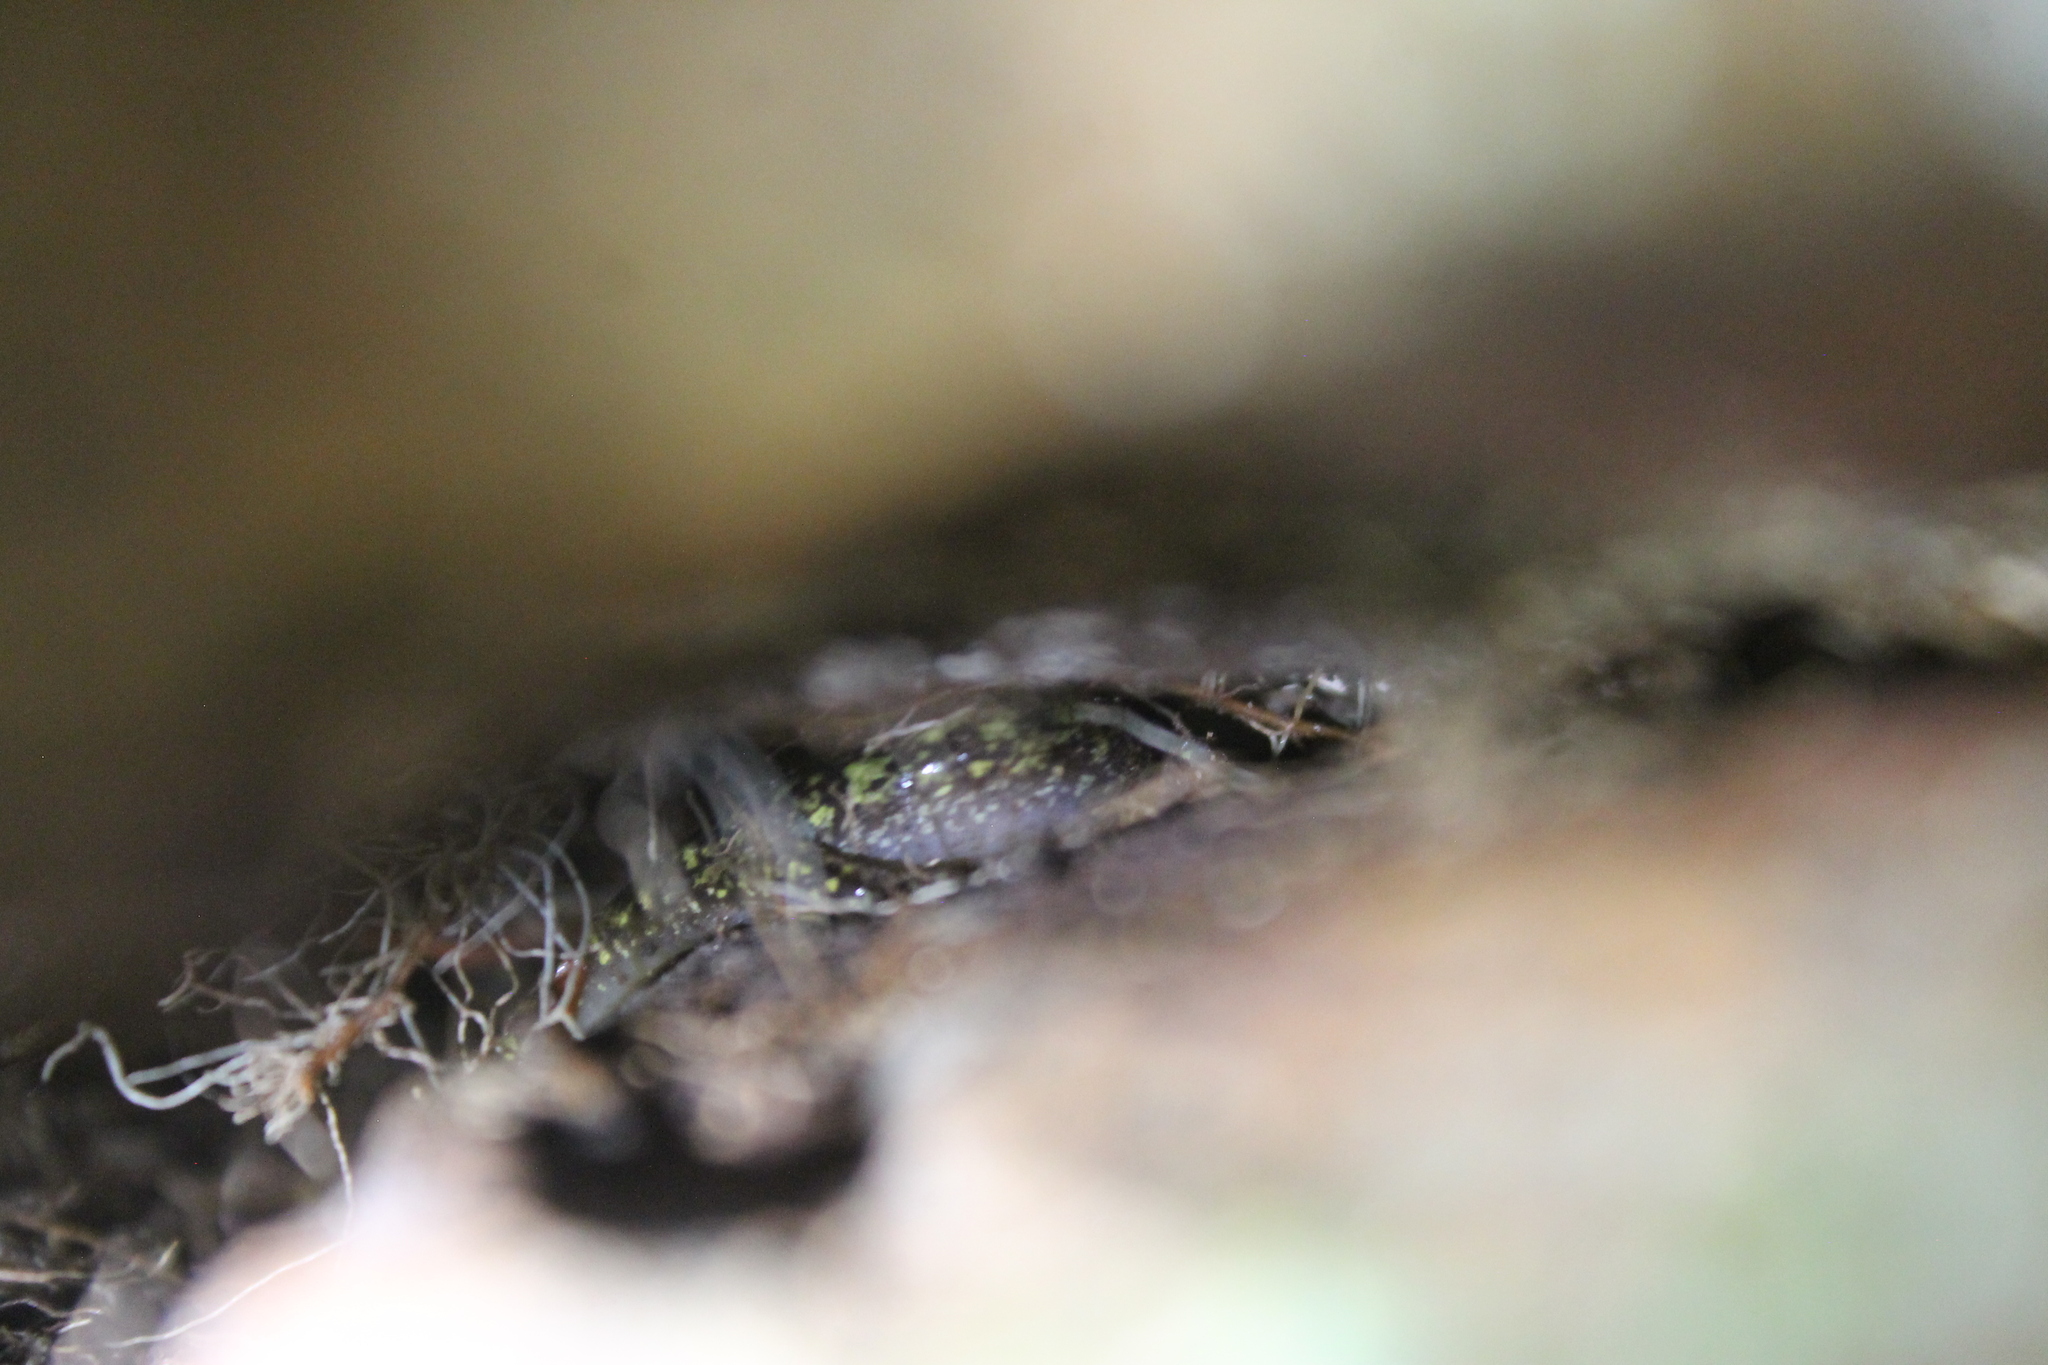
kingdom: Animalia
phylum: Chordata
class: Amphibia
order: Caudata
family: Plethodontidae
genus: Aneides
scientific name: Aneides aeneus
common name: Green salamander
